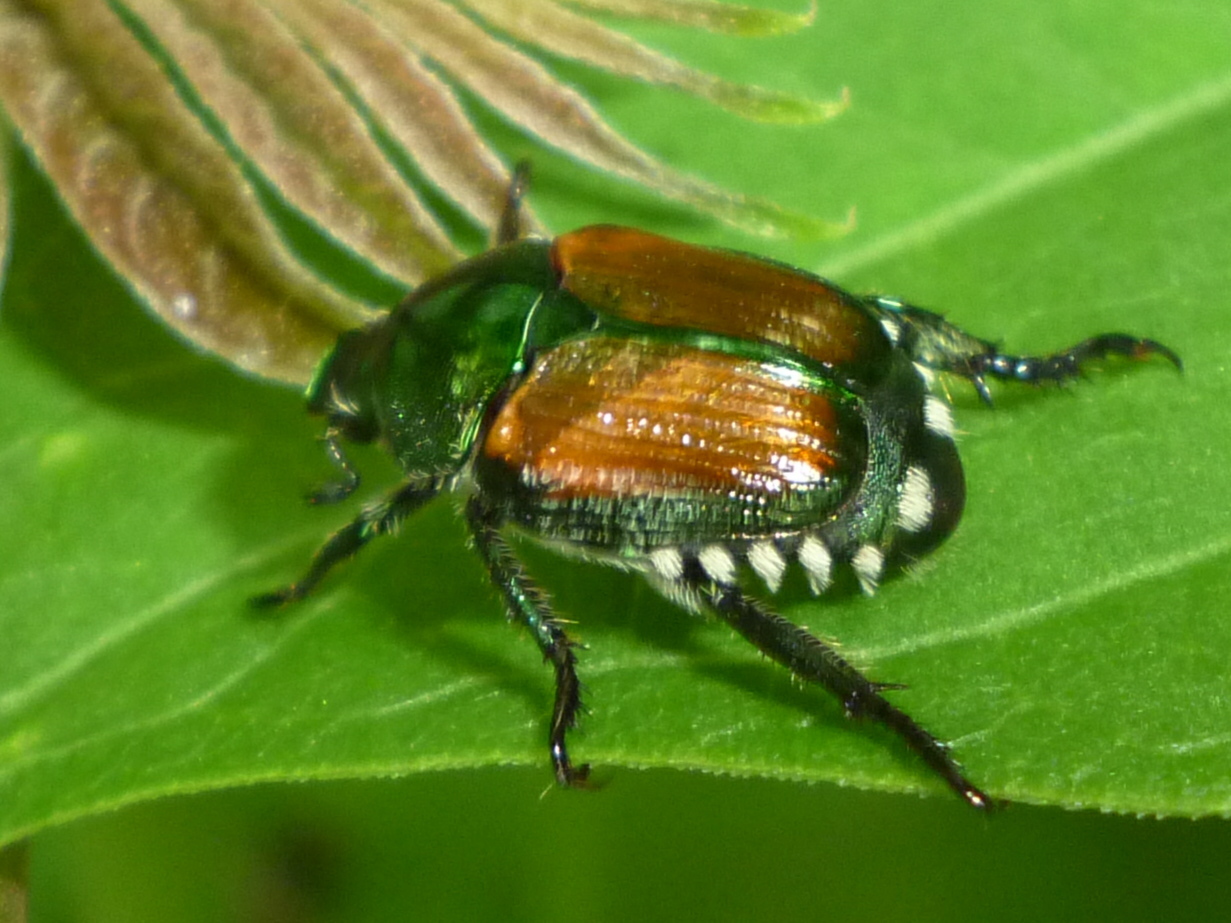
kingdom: Animalia
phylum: Arthropoda
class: Insecta
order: Coleoptera
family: Scarabaeidae
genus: Popillia
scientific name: Popillia japonica
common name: Japanese beetle
